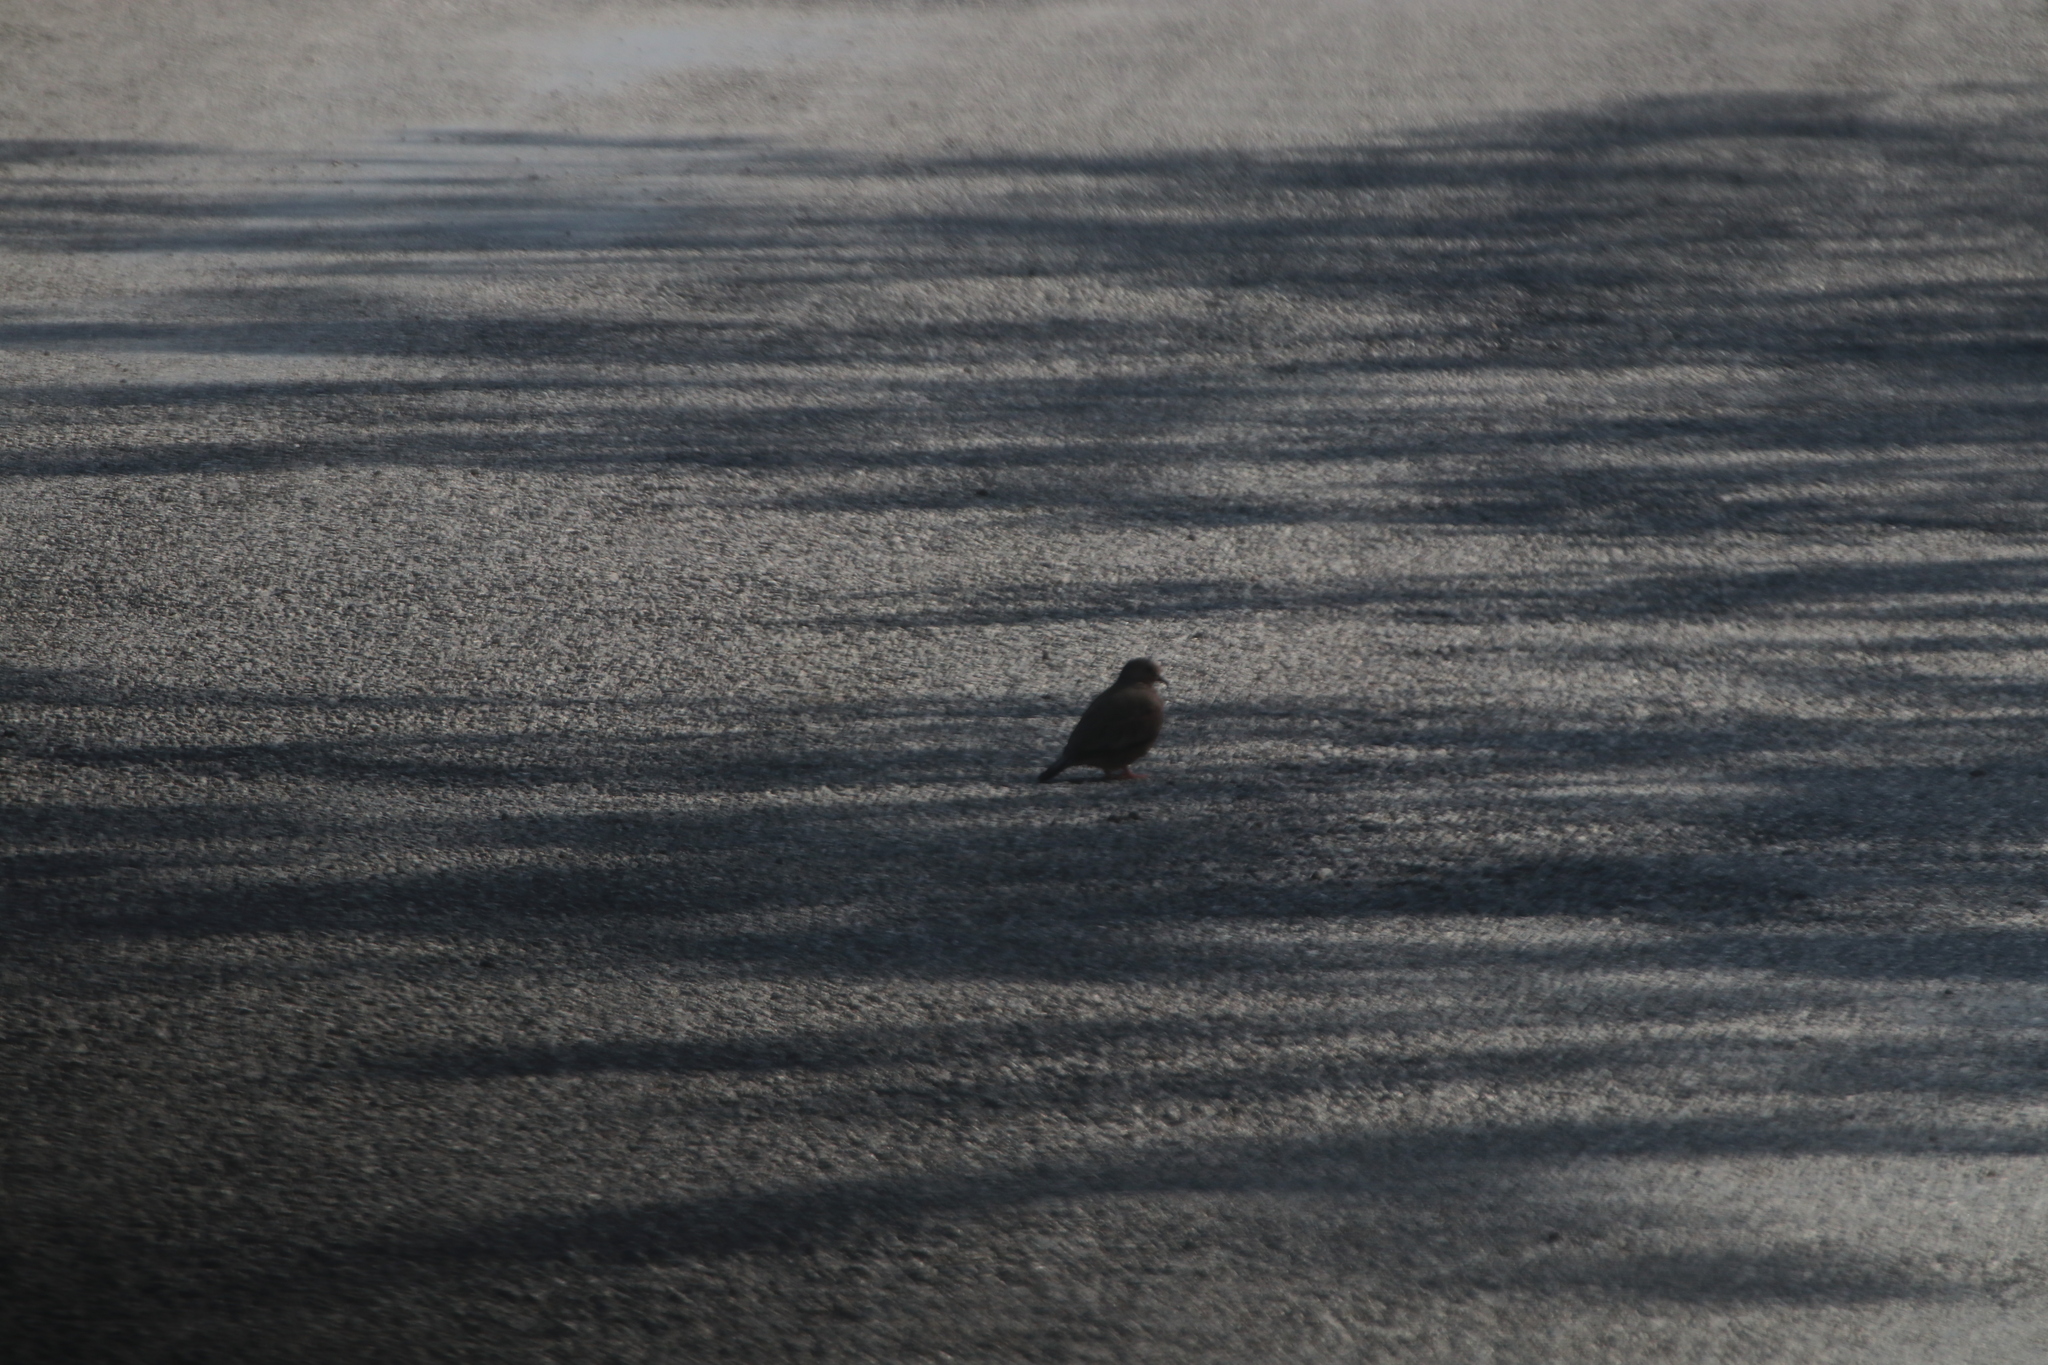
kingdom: Animalia
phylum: Chordata
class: Aves
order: Columbiformes
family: Columbidae
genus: Columbina
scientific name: Columbina talpacoti
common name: Ruddy ground dove
